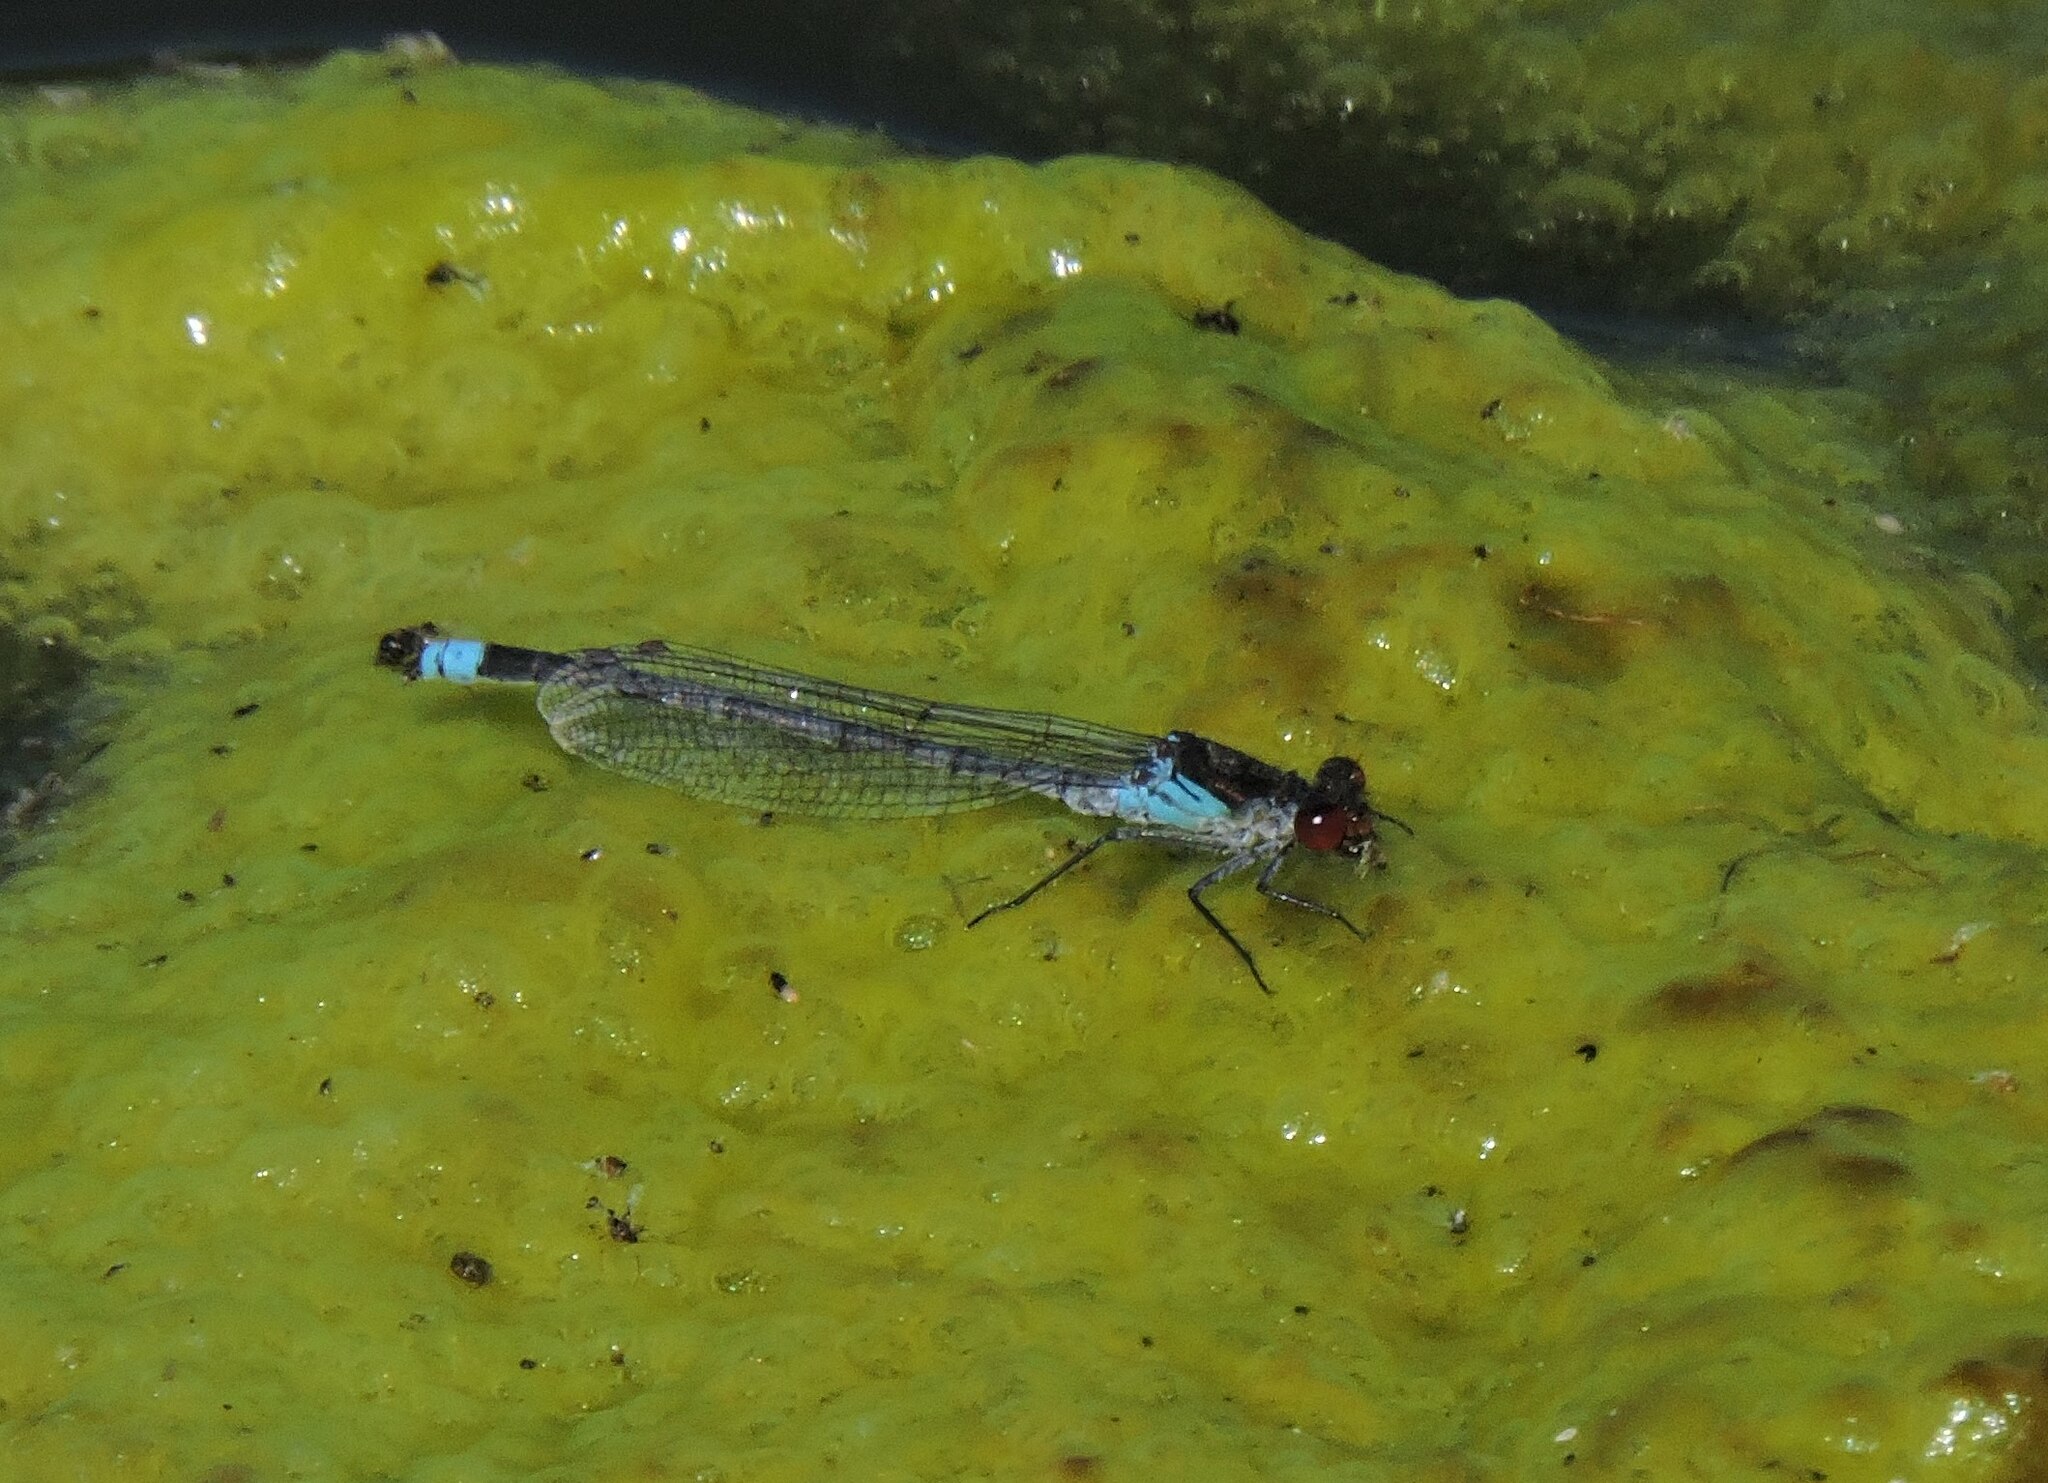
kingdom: Animalia
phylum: Arthropoda
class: Insecta
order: Odonata
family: Coenagrionidae
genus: Erythromma
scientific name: Erythromma najas
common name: Red-eyed damselfly
